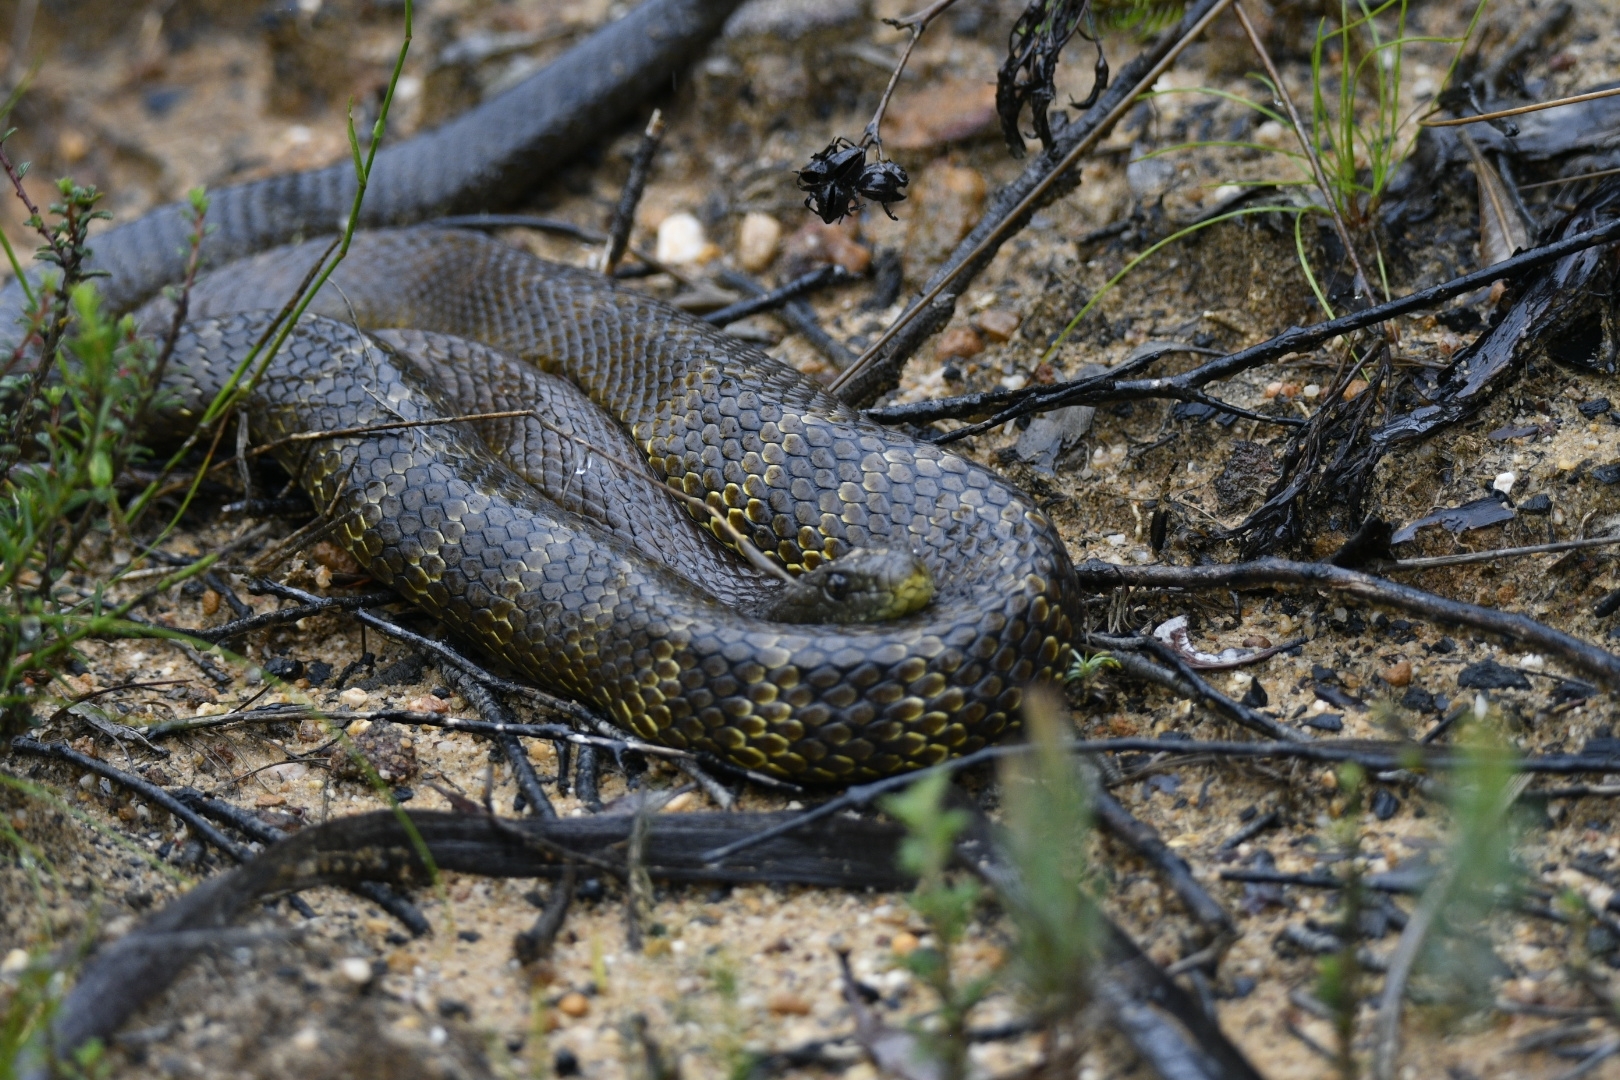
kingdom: Animalia
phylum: Chordata
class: Squamata
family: Elapidae
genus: Notechis
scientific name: Notechis scutatus
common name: Mainland tiger snake
